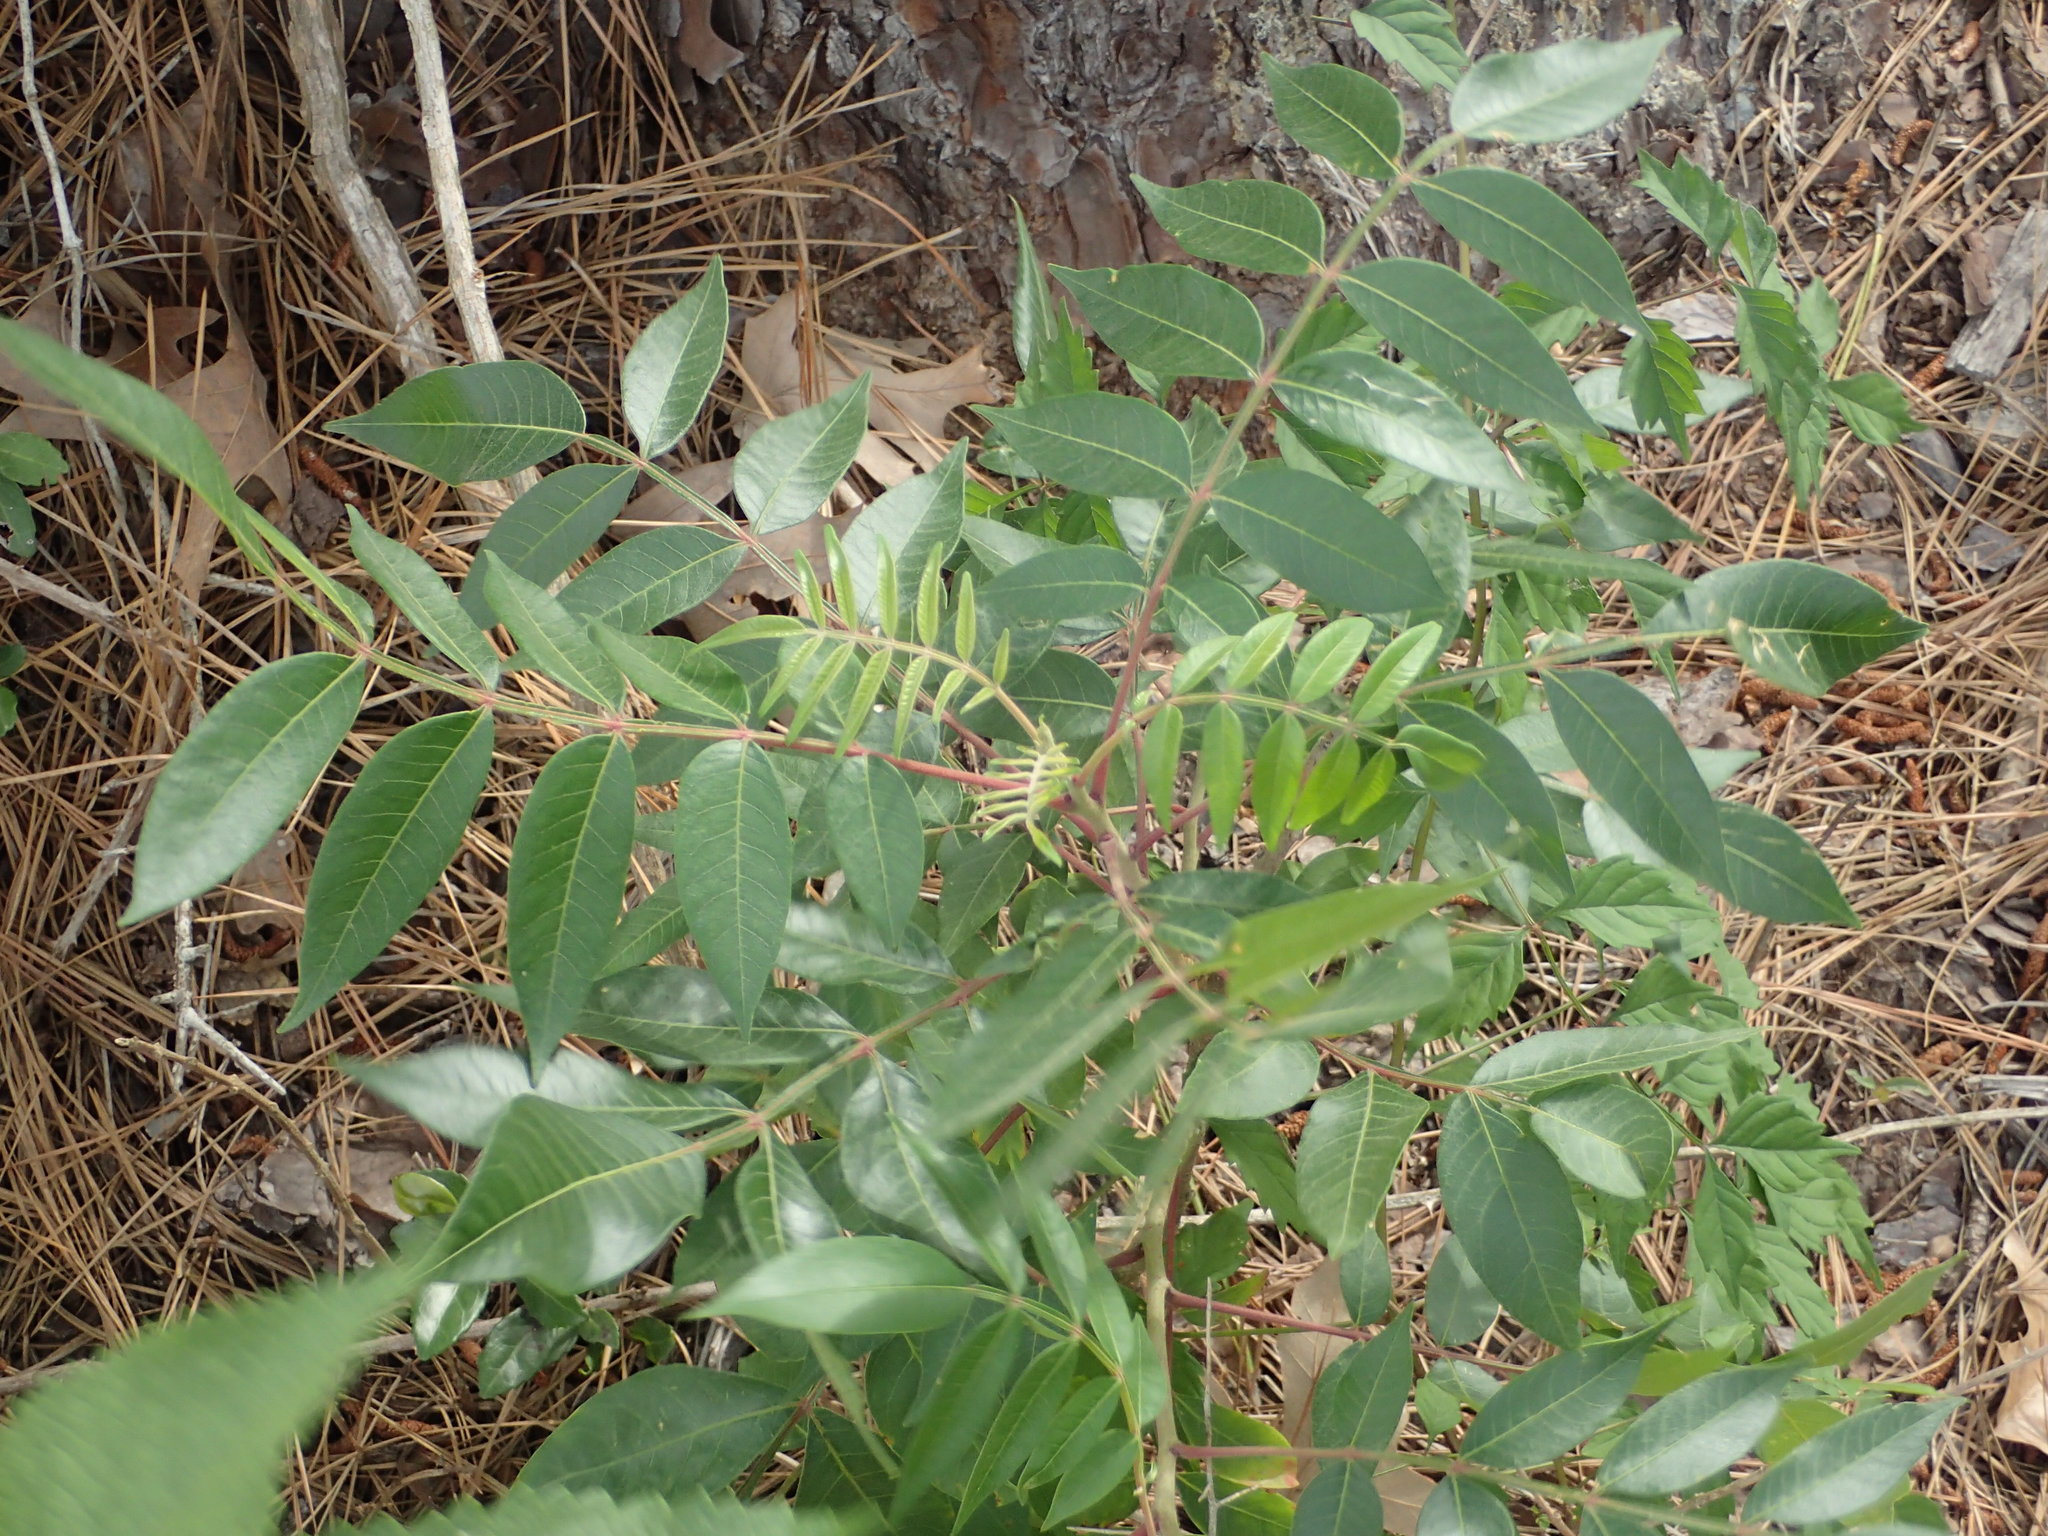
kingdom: Plantae
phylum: Tracheophyta
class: Magnoliopsida
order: Sapindales
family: Anacardiaceae
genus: Rhus
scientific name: Rhus copallina
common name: Shining sumac
